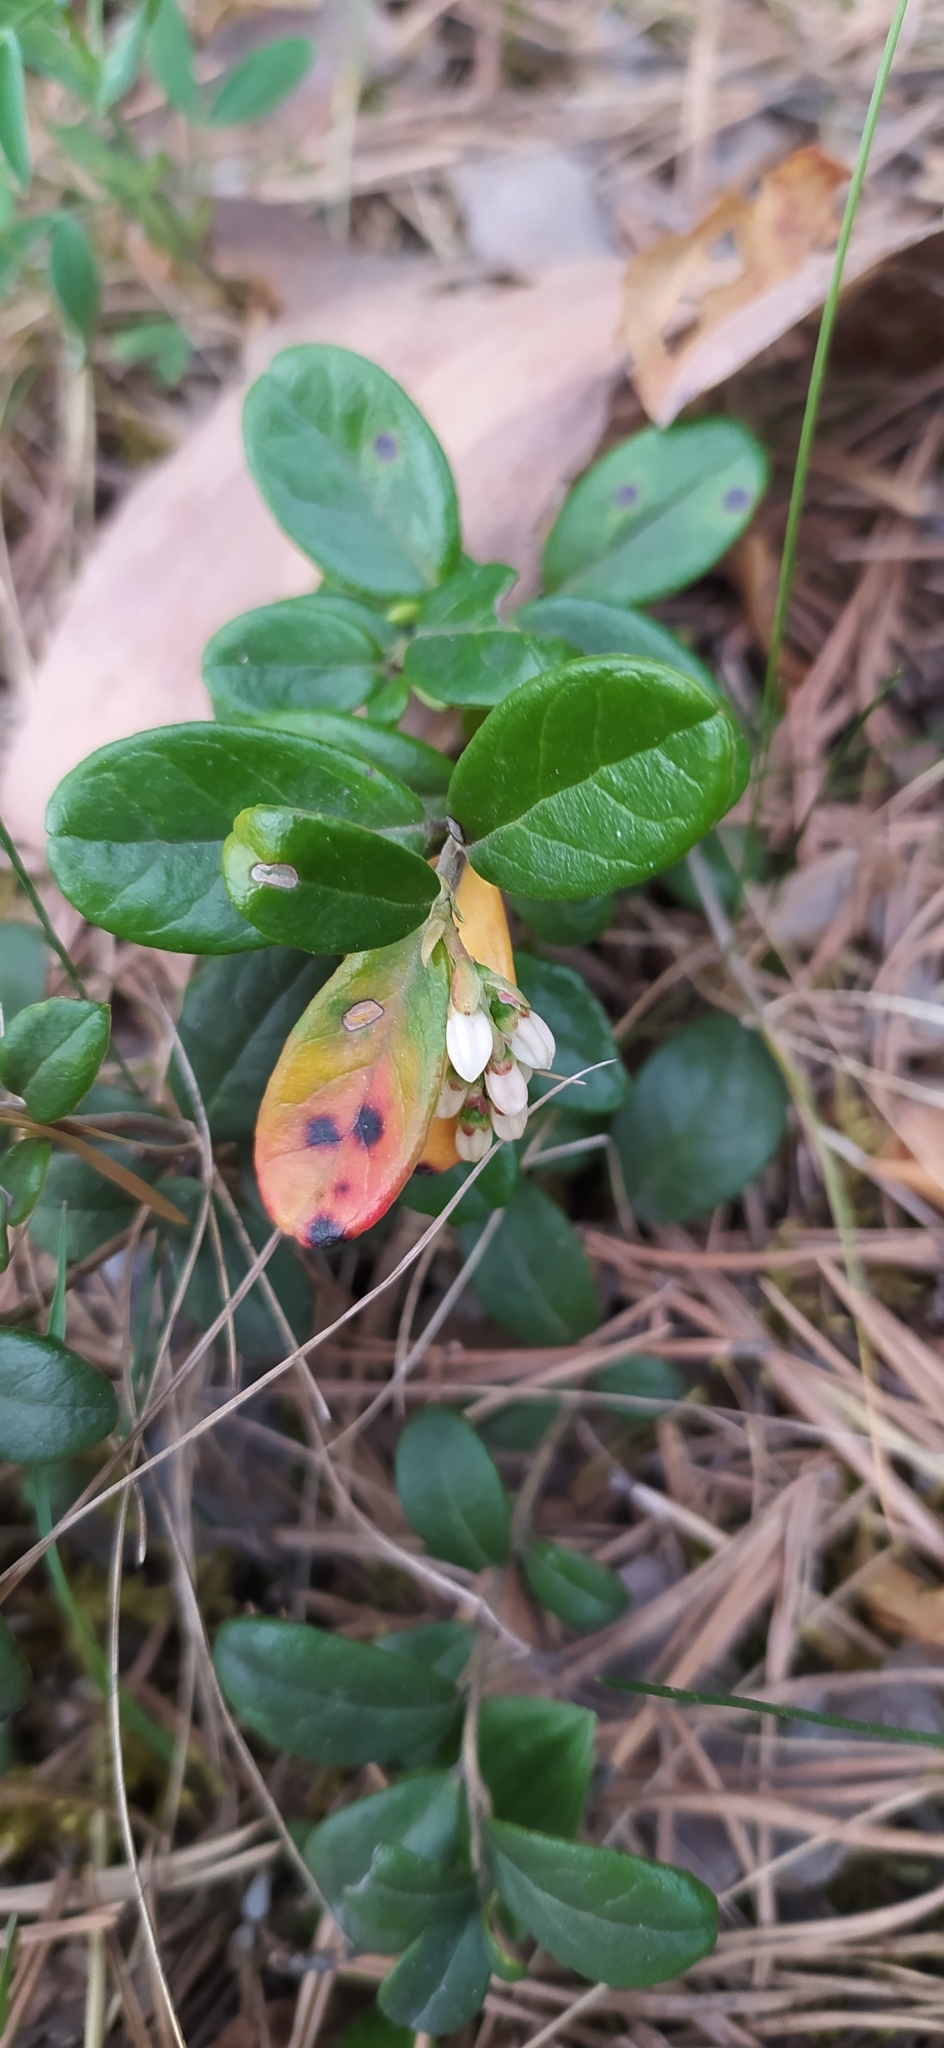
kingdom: Plantae
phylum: Tracheophyta
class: Magnoliopsida
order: Ericales
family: Ericaceae
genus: Vaccinium
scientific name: Vaccinium vitis-idaea
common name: Cowberry
